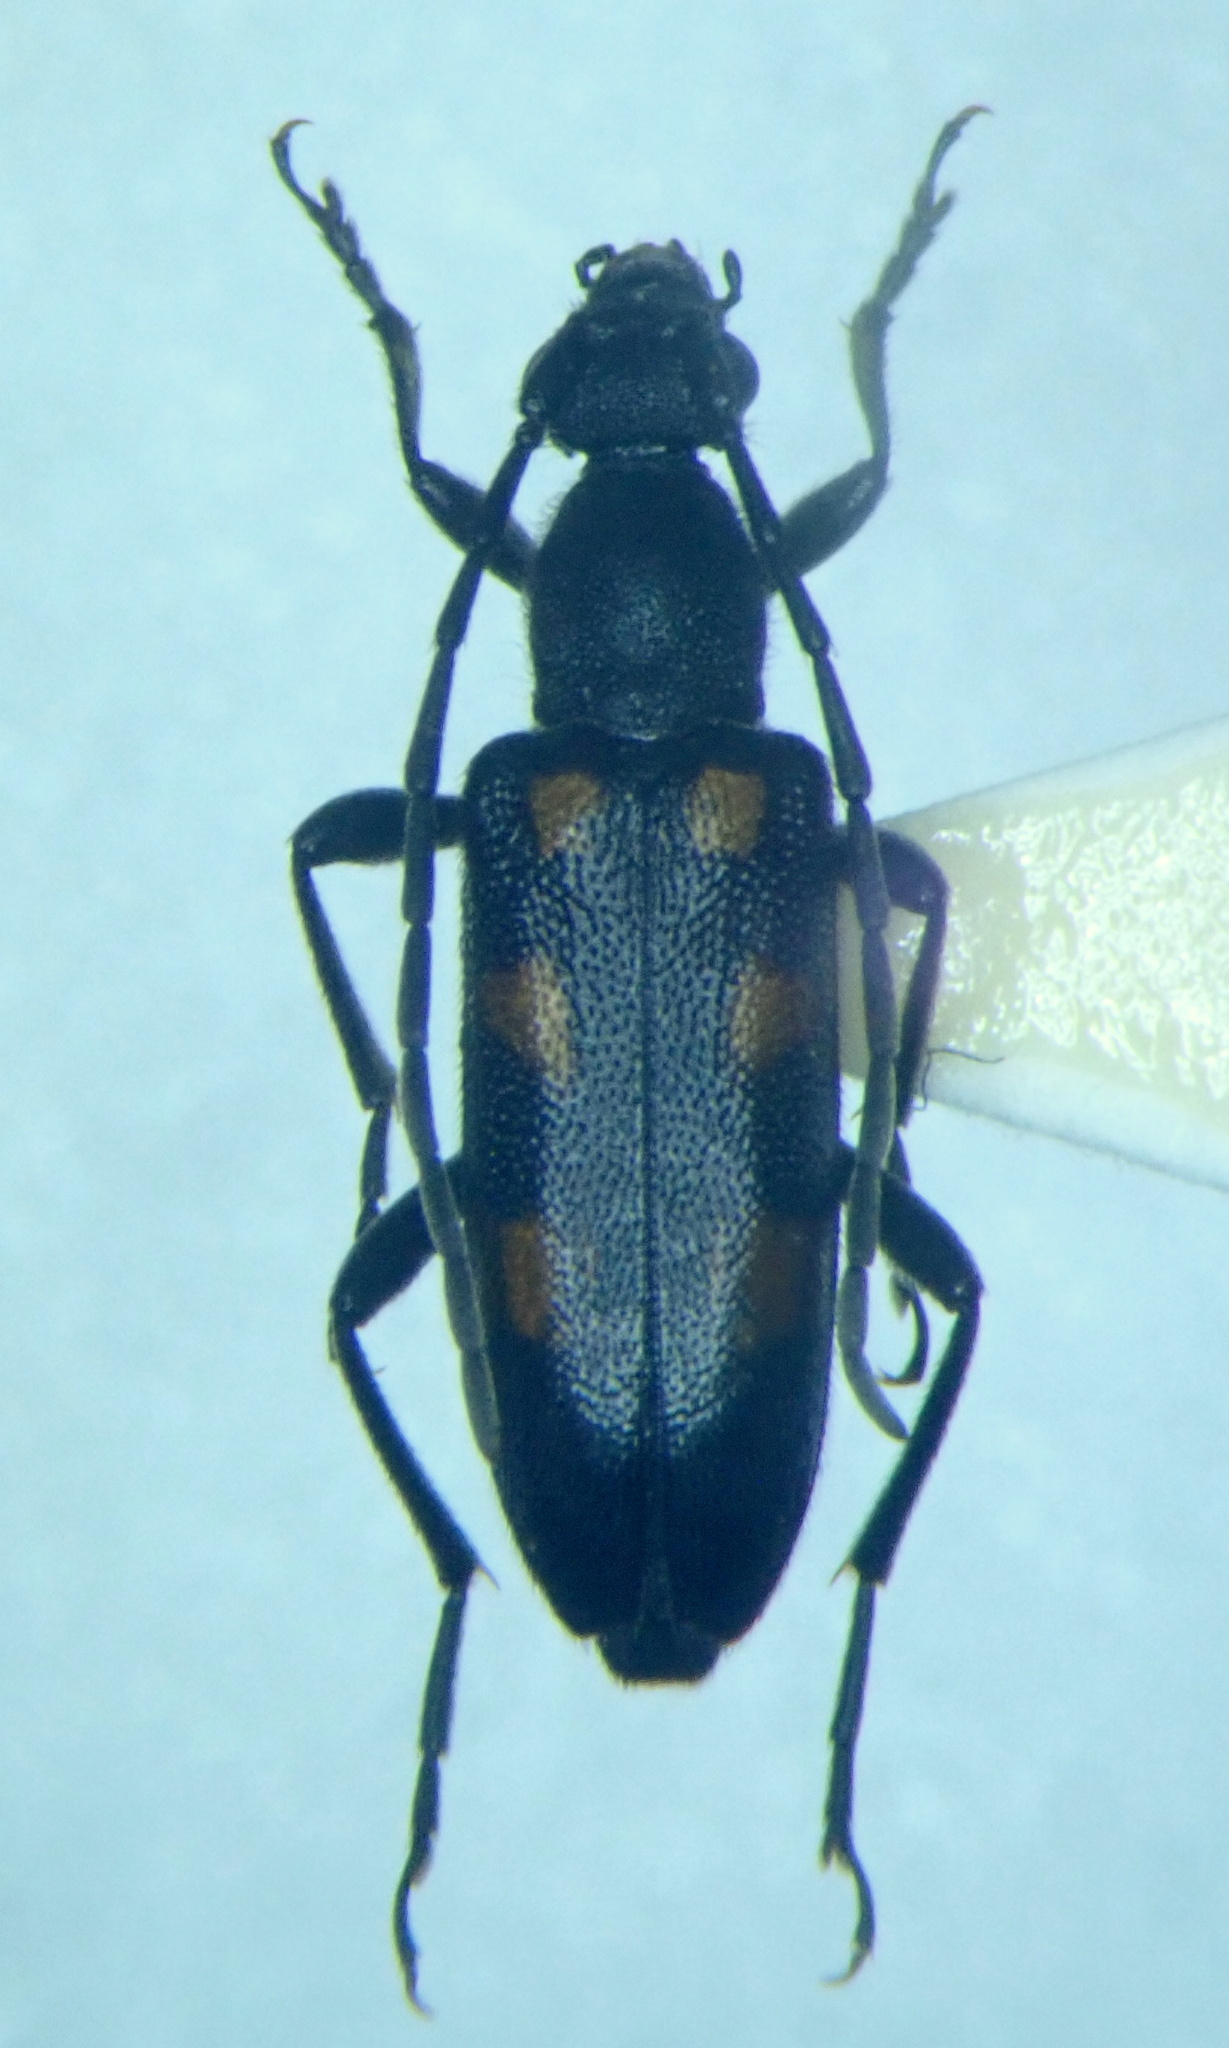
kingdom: Animalia
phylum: Arthropoda
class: Insecta
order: Coleoptera
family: Cerambycidae
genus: Anoplodera
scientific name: Anoplodera sexguttata
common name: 6 spotted longhorn
